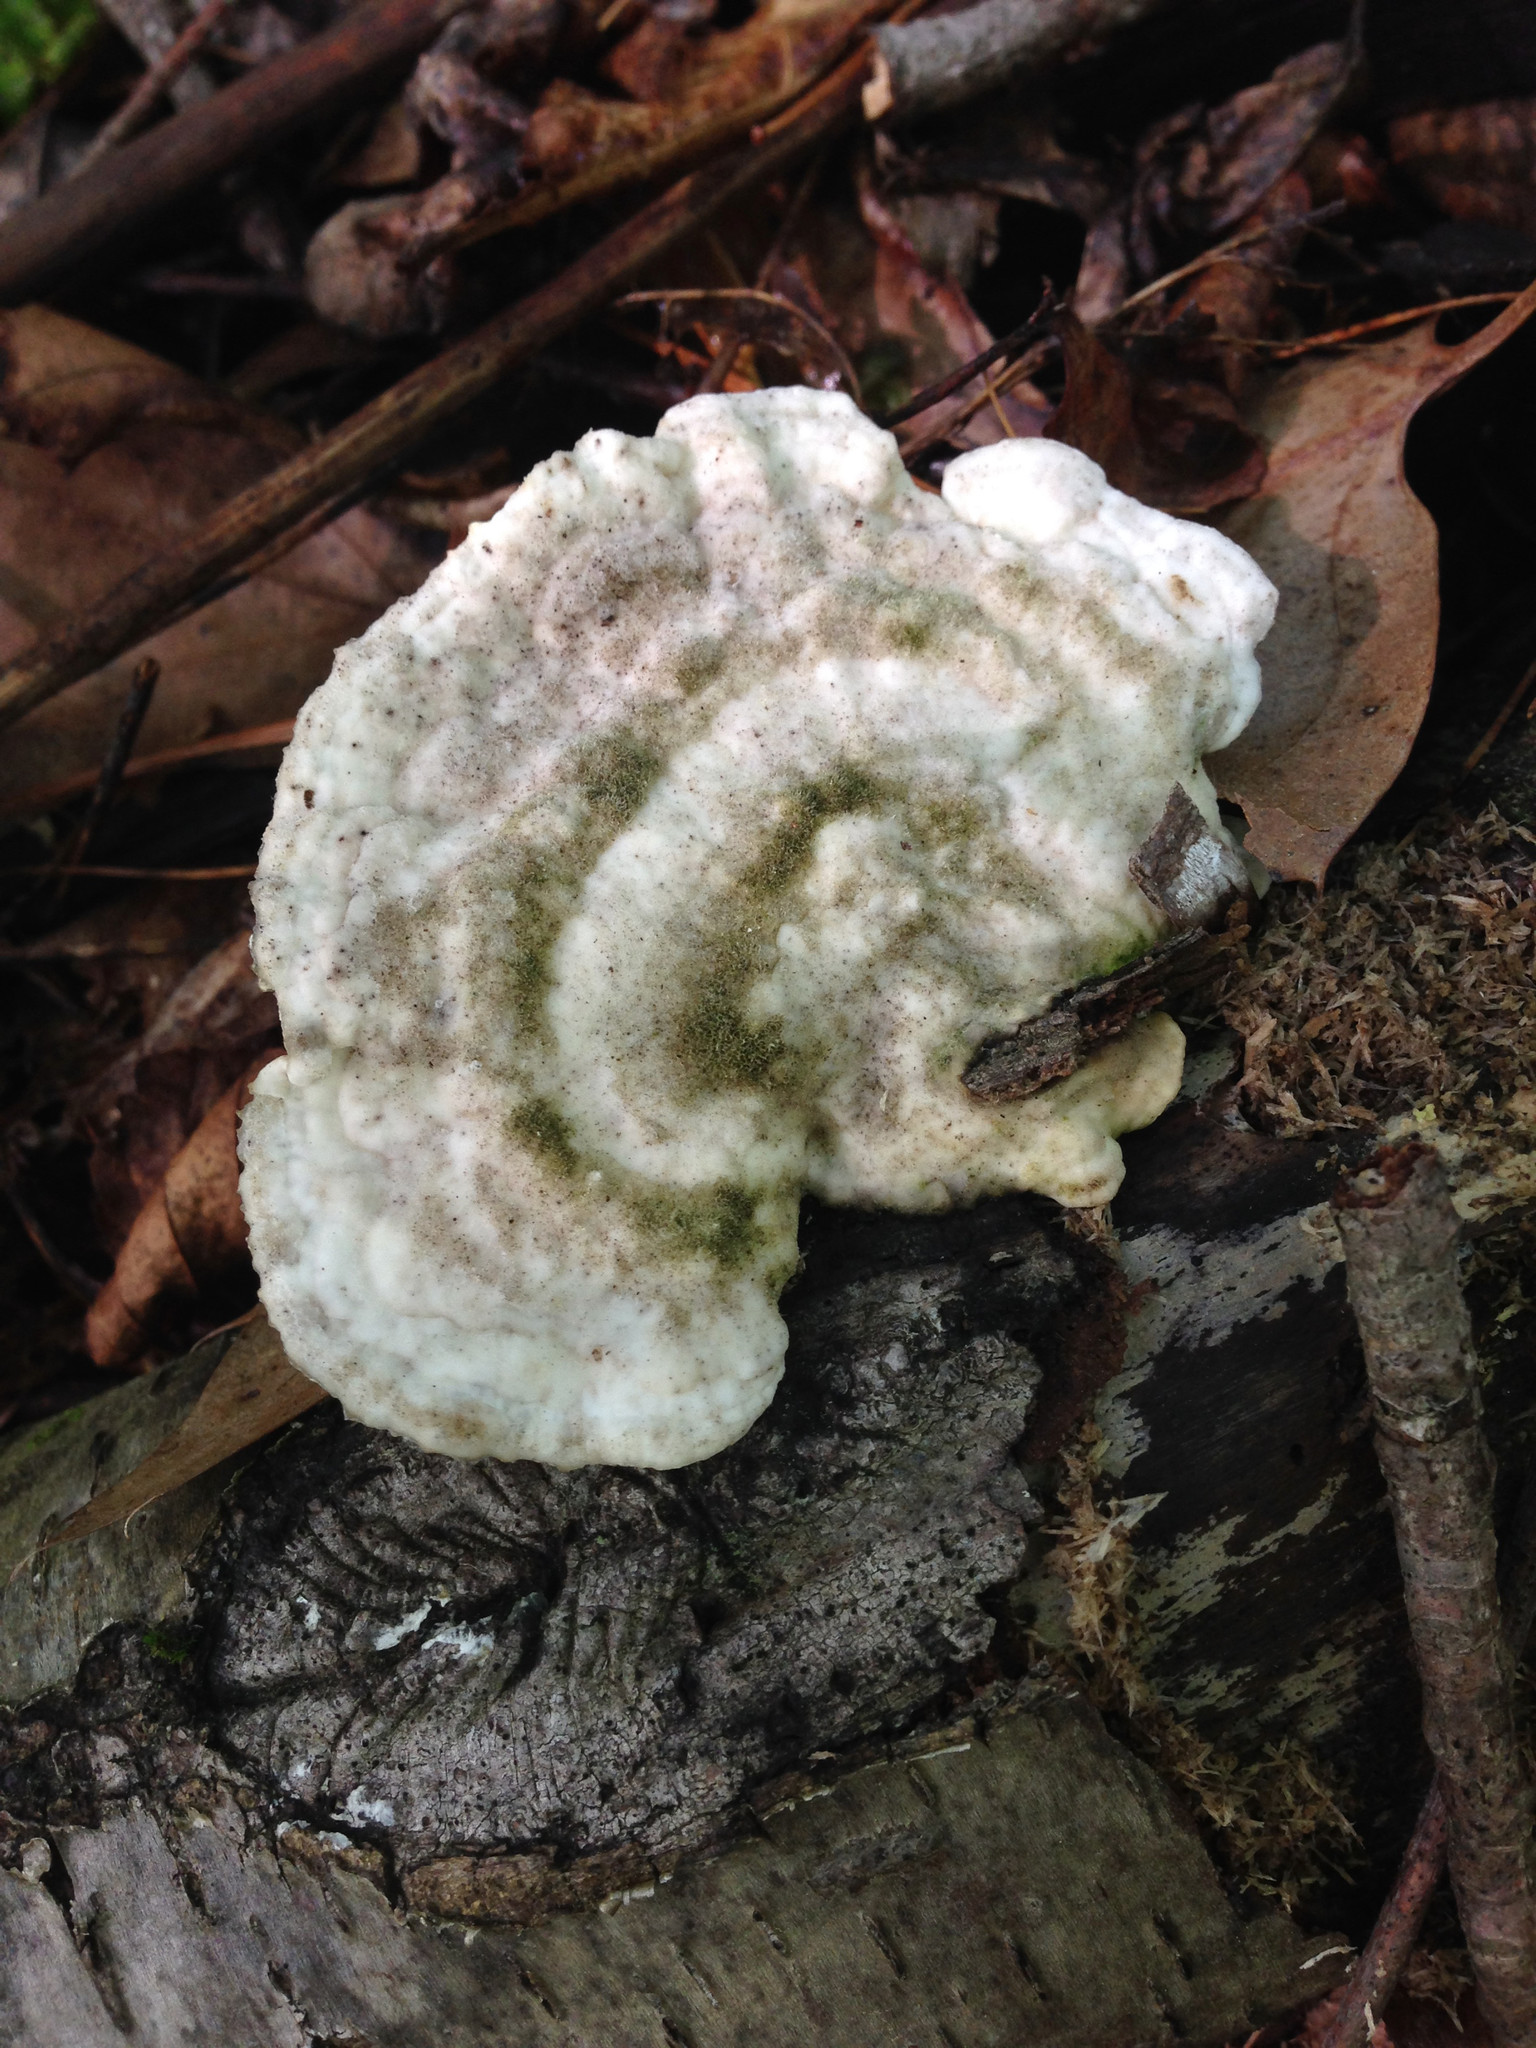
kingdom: Fungi
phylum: Basidiomycota
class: Agaricomycetes
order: Polyporales
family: Polyporaceae
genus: Trametes
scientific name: Trametes gibbosa
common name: Lumpy bracket
